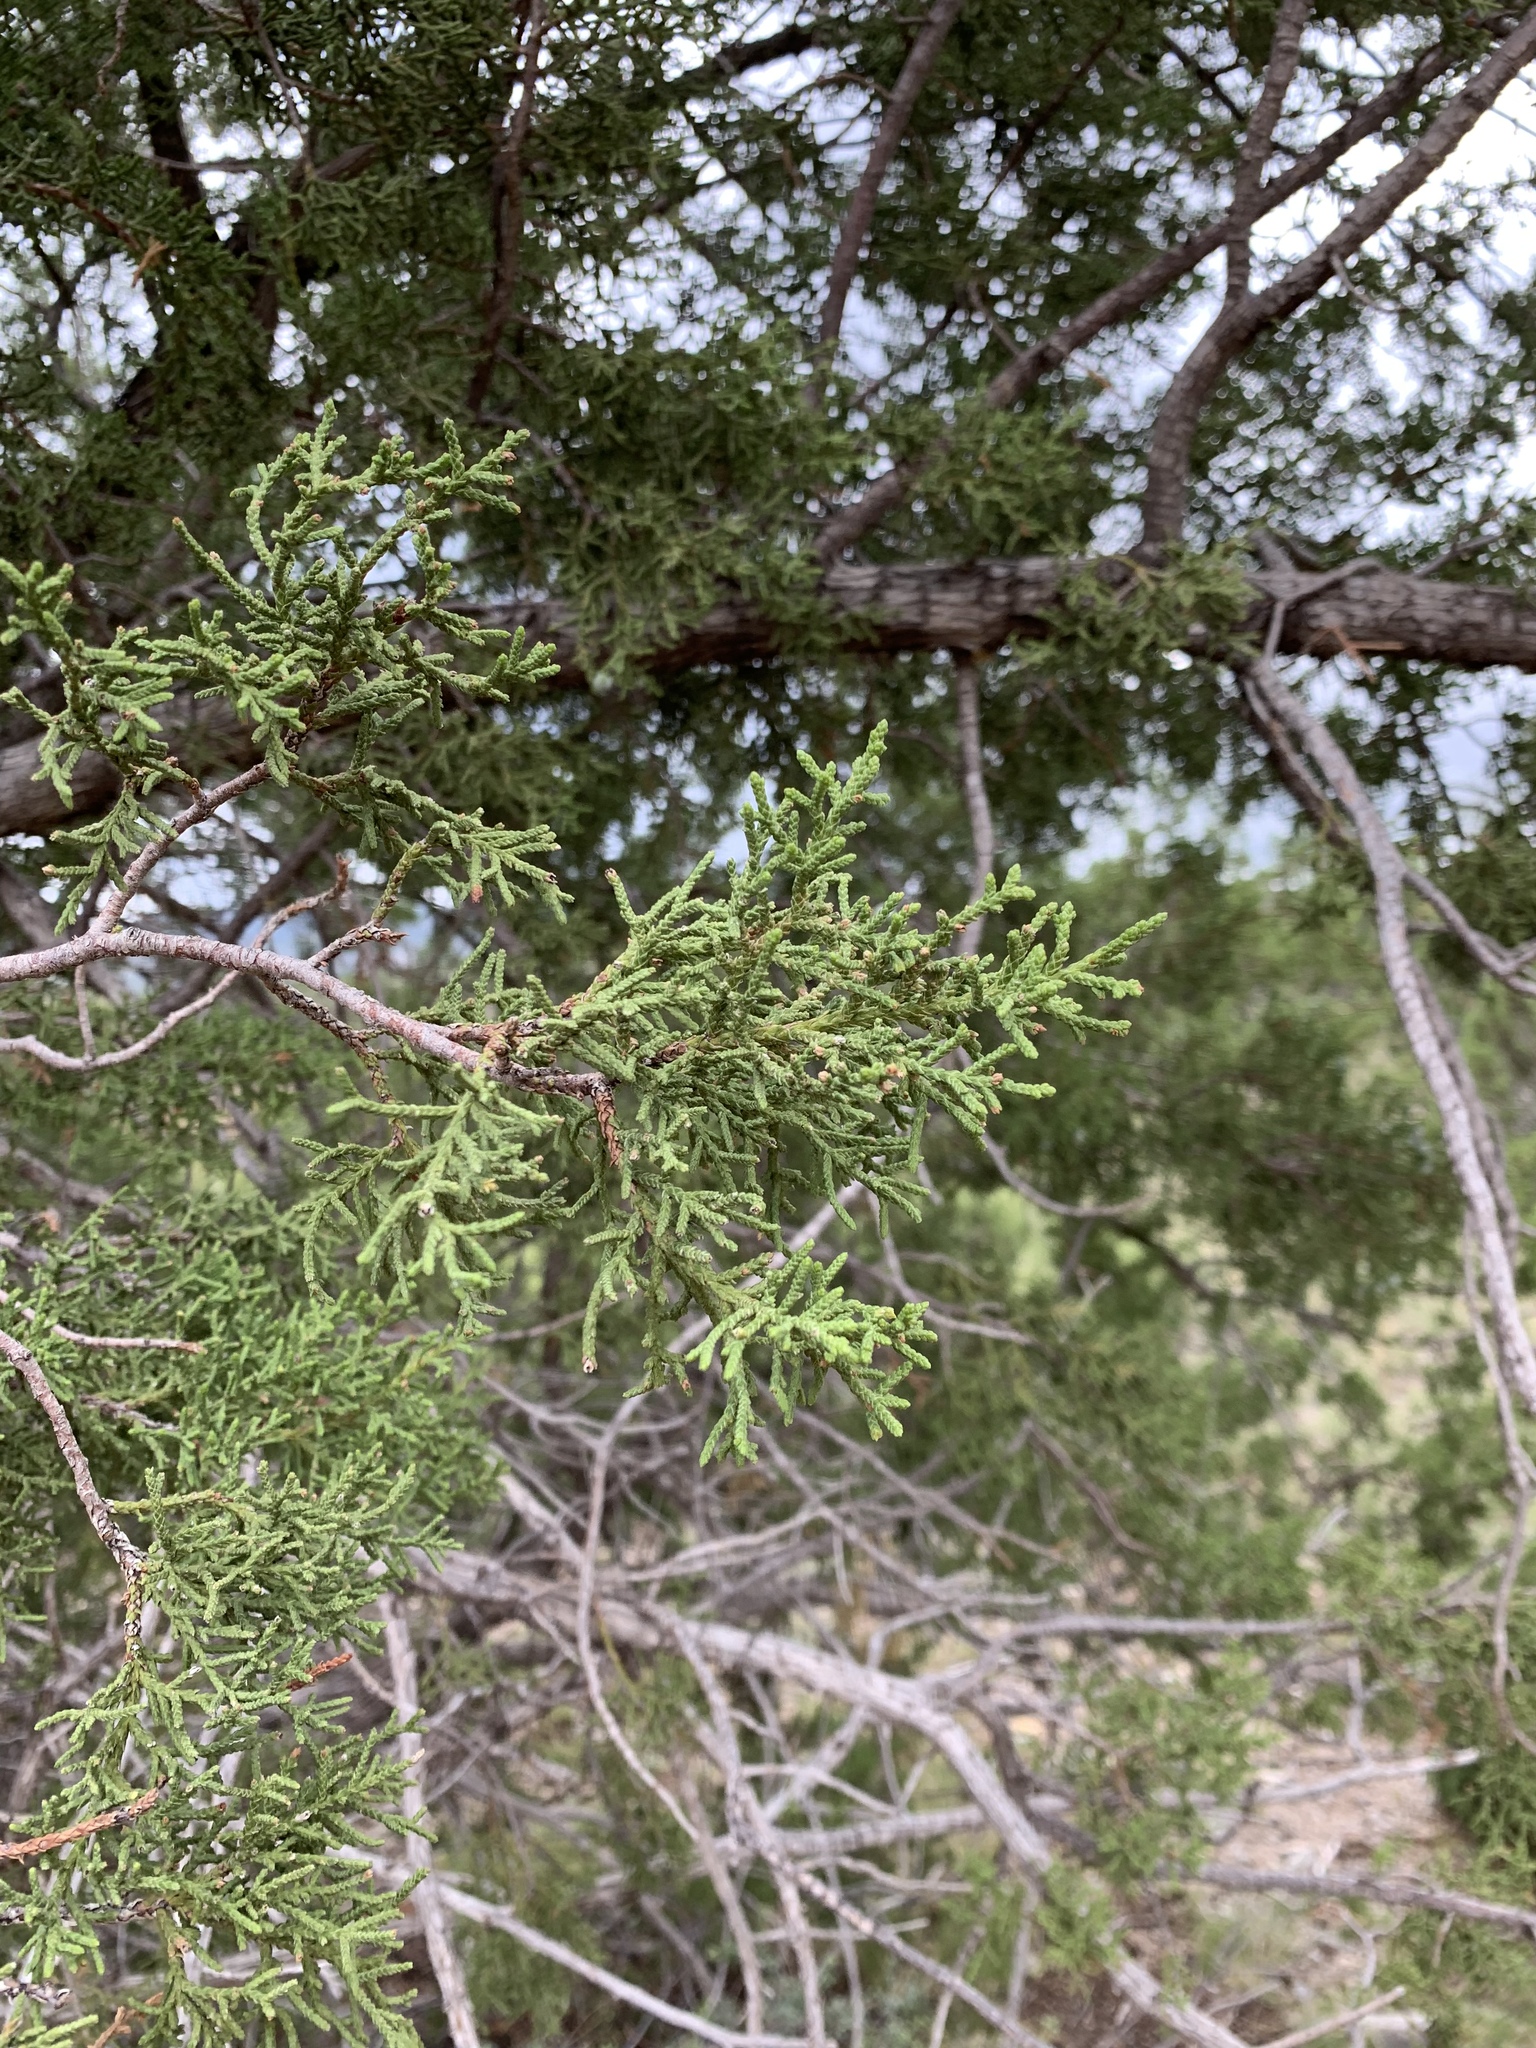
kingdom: Plantae
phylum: Tracheophyta
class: Pinopsida
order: Pinales
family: Cupressaceae
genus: Juniperus
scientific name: Juniperus monosperma
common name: One-seed juniper
